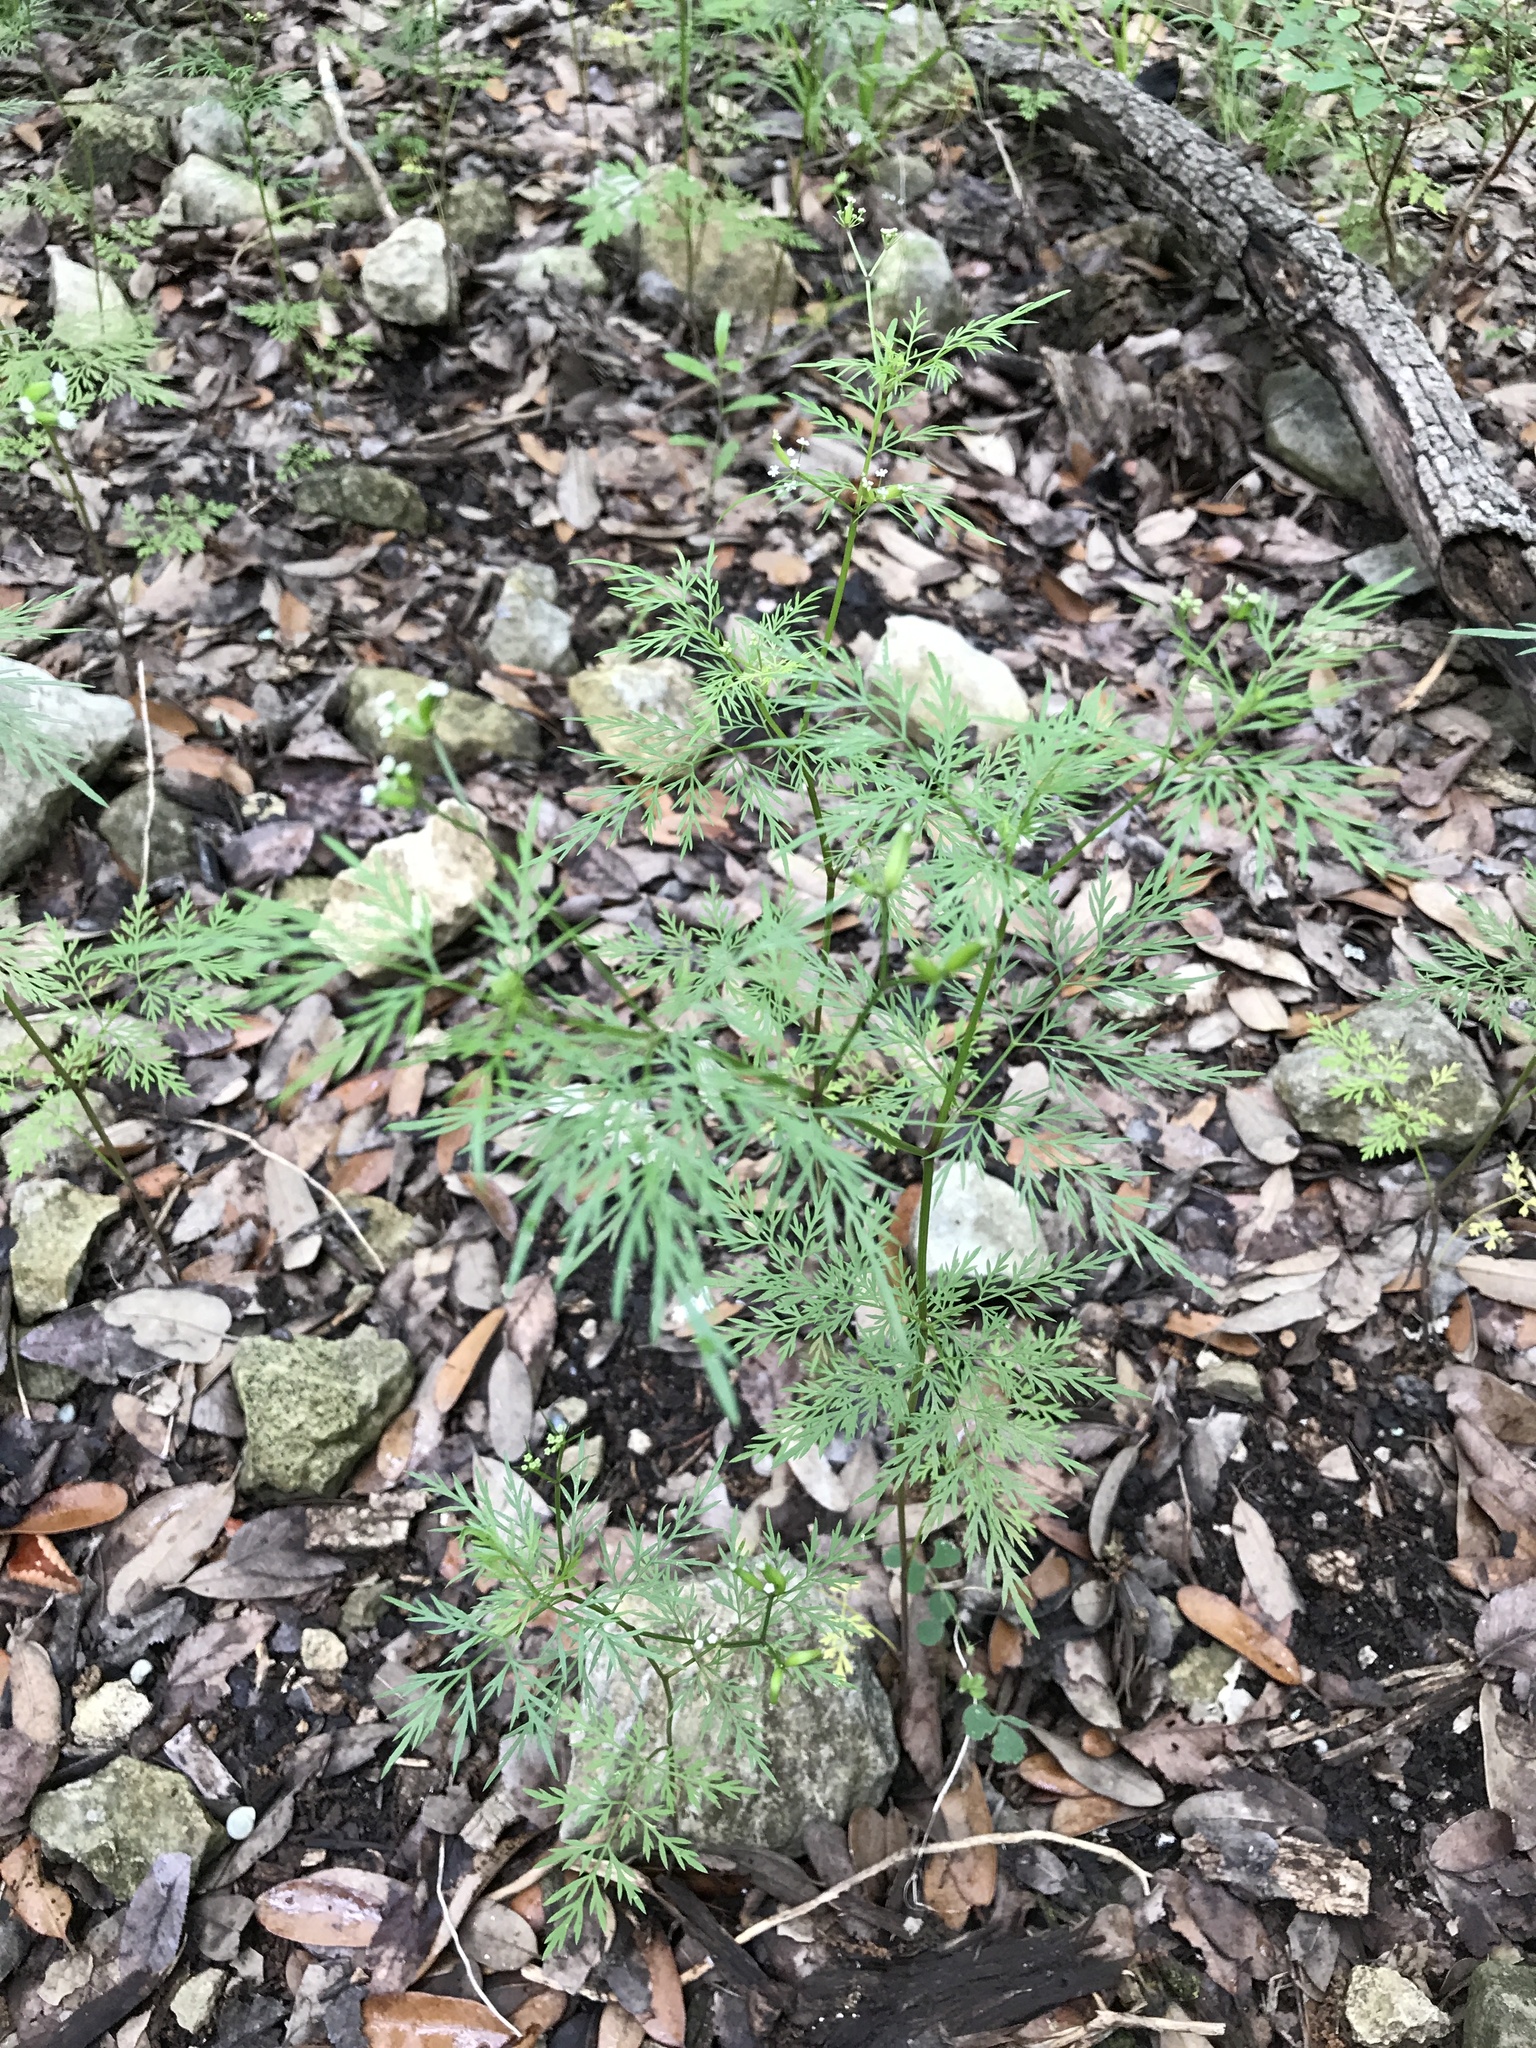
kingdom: Plantae
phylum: Tracheophyta
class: Magnoliopsida
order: Apiales
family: Apiaceae
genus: Trepocarpus
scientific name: Trepocarpus aethusae
